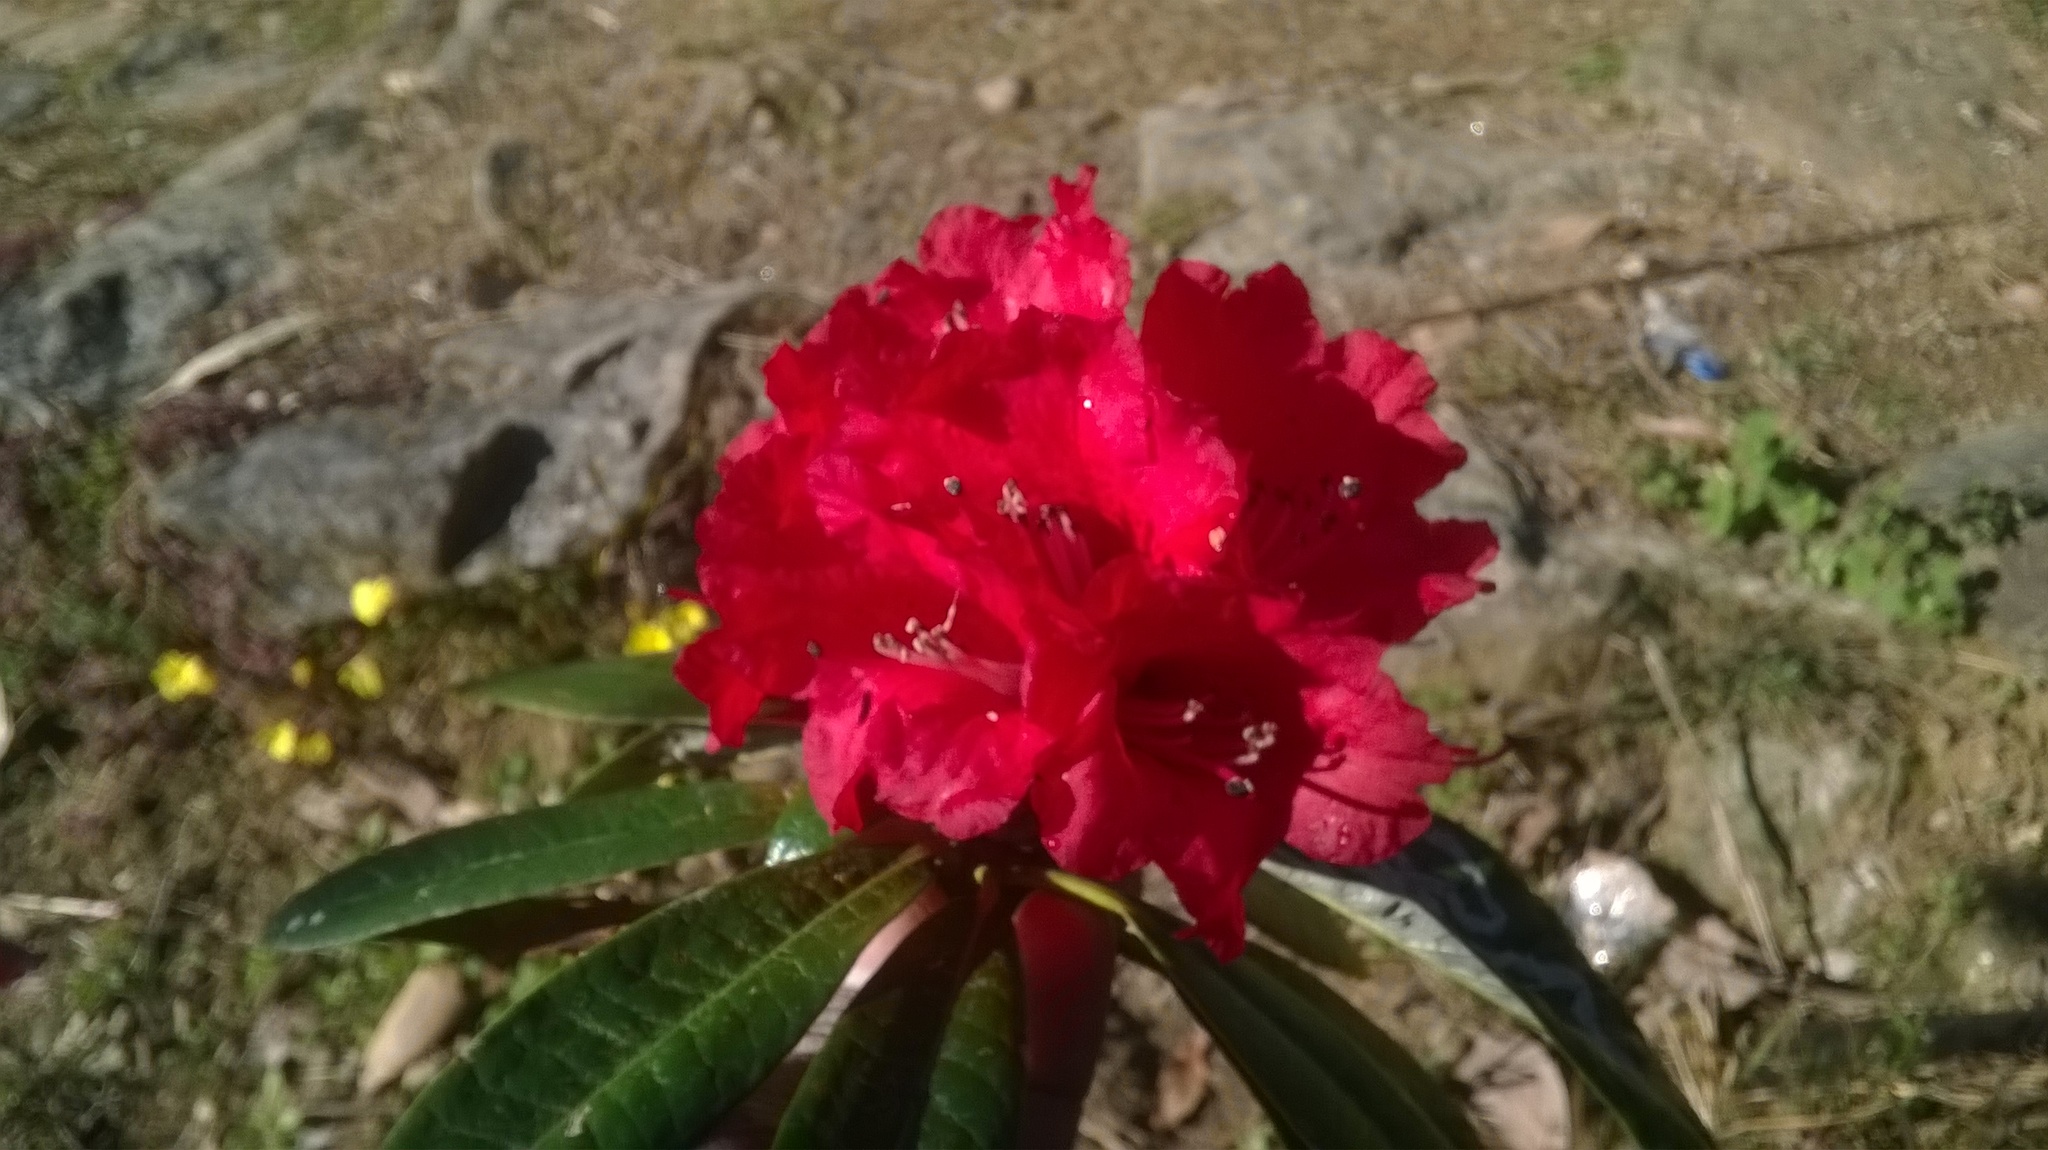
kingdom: Plantae
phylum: Tracheophyta
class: Magnoliopsida
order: Ericales
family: Ericaceae
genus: Rhododendron
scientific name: Rhododendron arboreum
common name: Tree rhododendron
